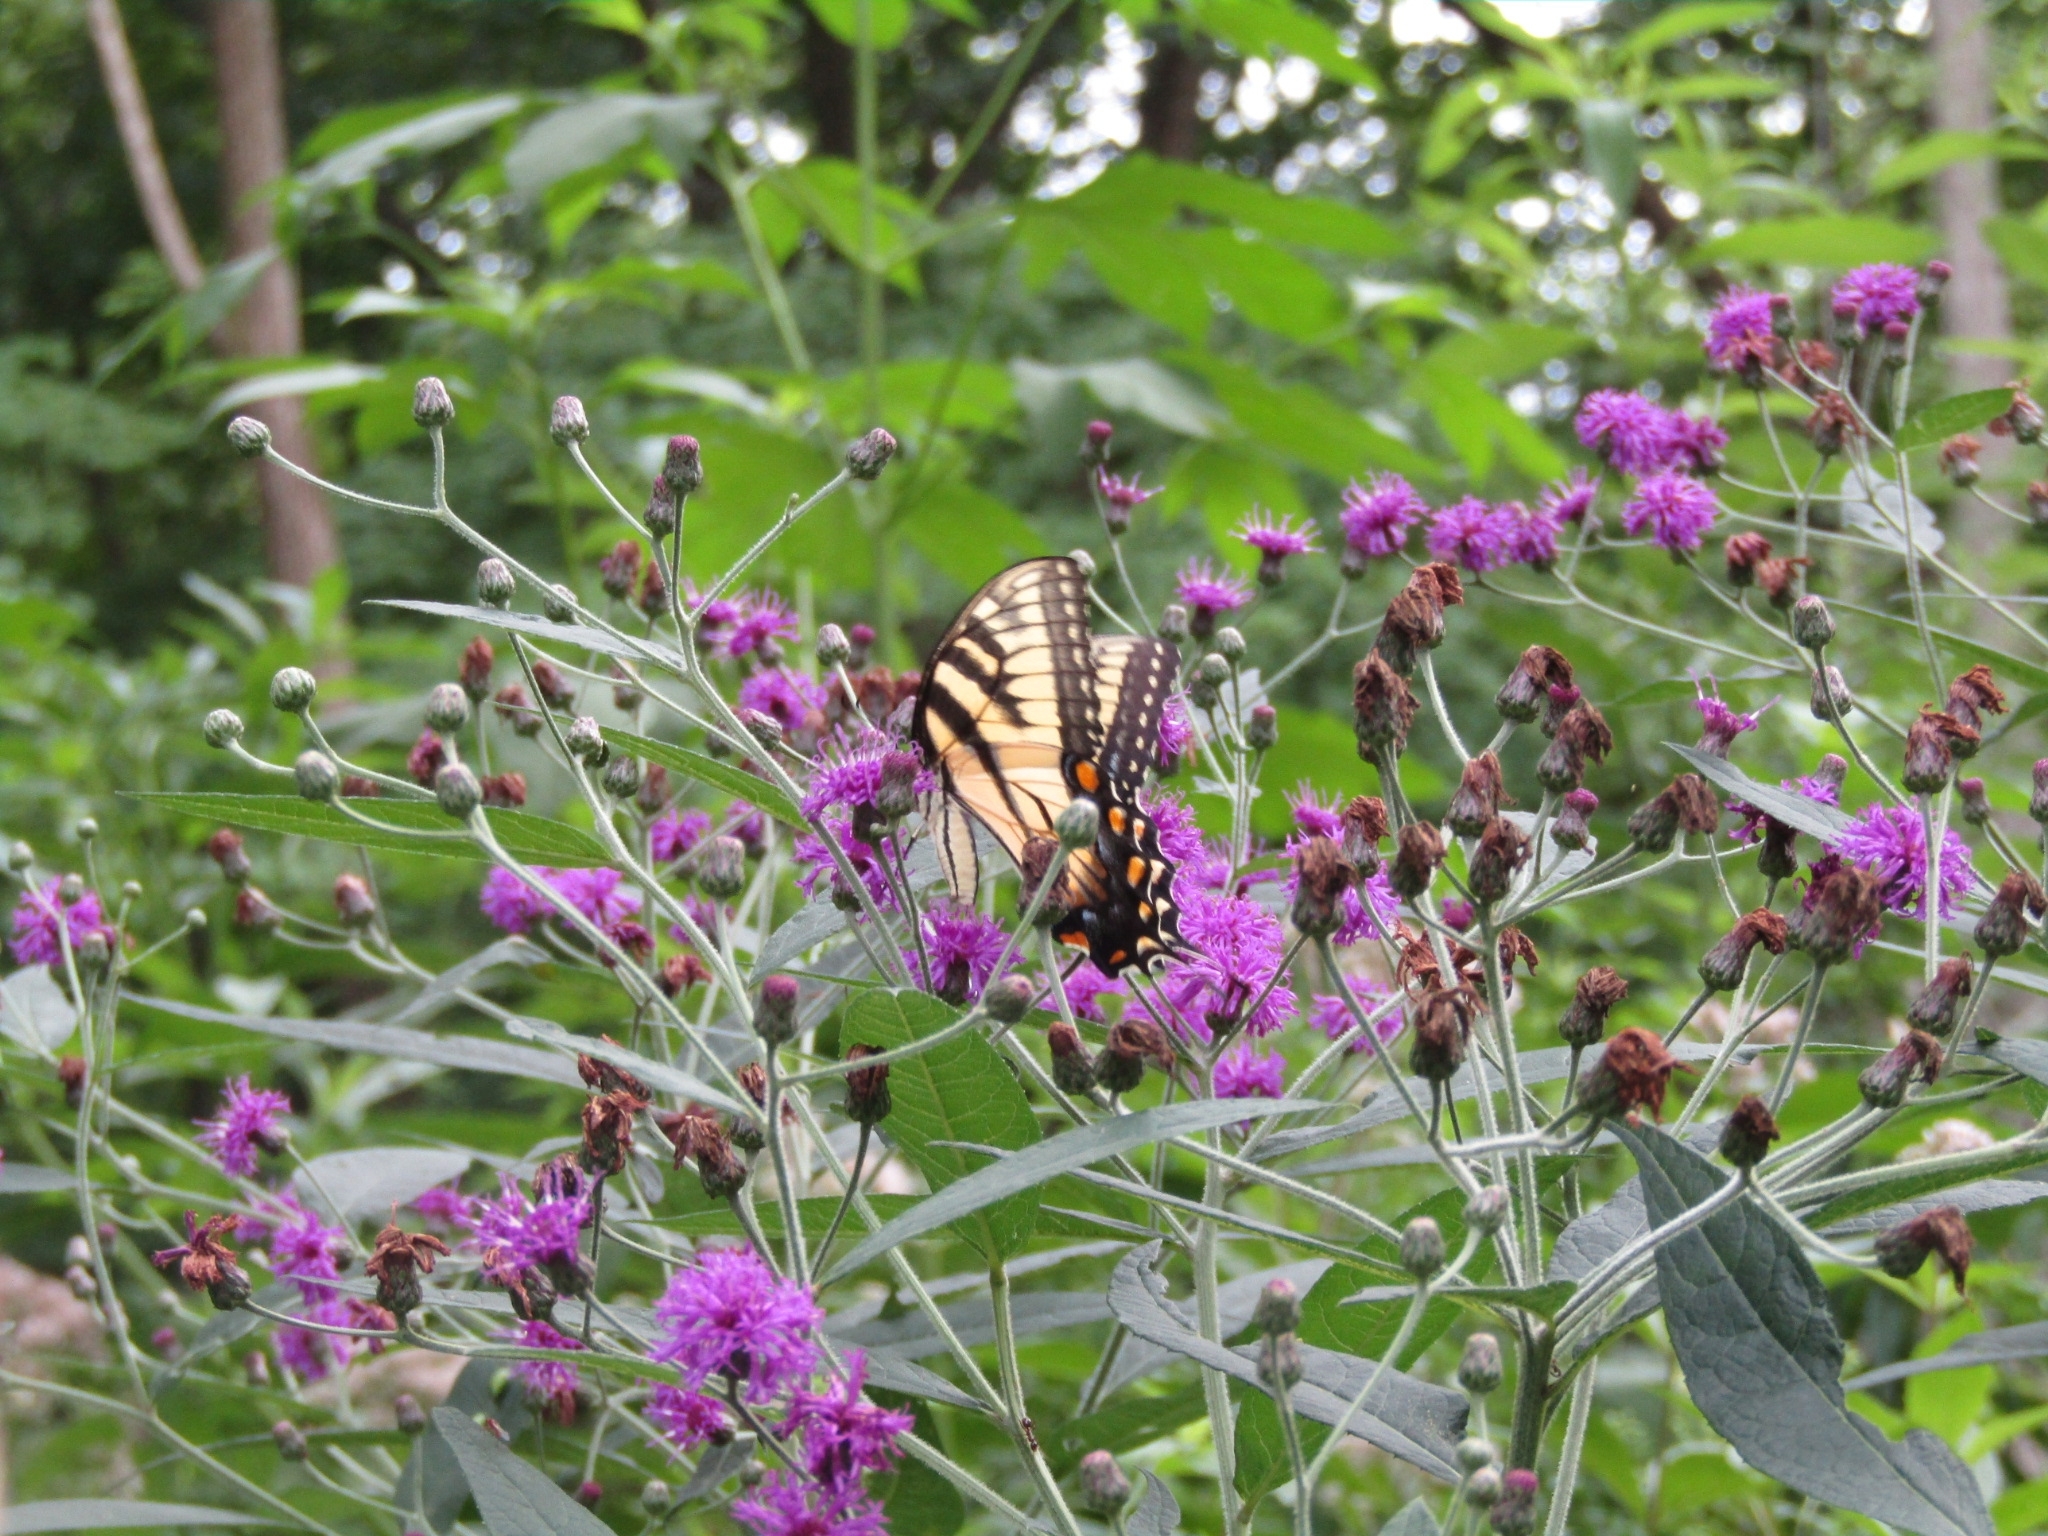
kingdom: Animalia
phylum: Arthropoda
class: Insecta
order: Lepidoptera
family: Papilionidae
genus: Papilio
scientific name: Papilio glaucus
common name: Tiger swallowtail
